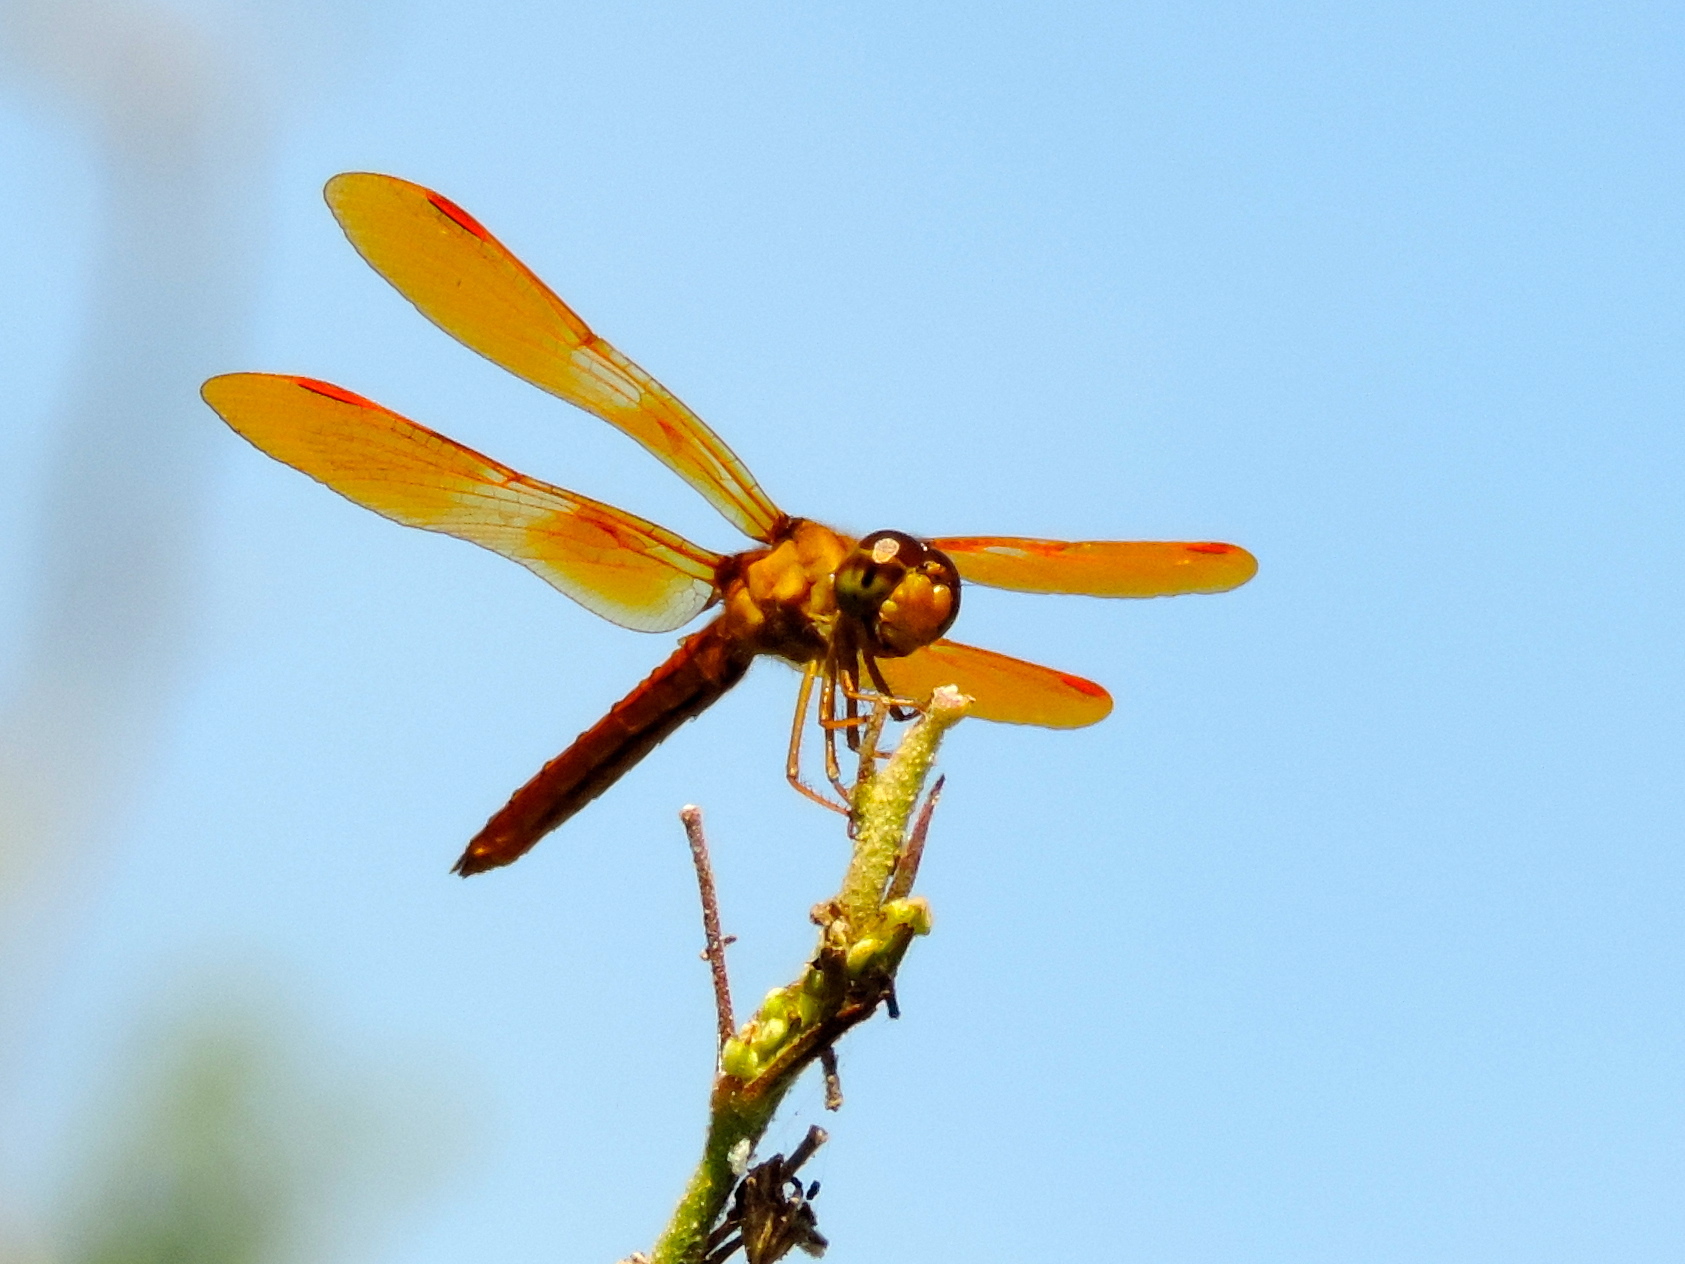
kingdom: Animalia
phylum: Arthropoda
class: Insecta
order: Odonata
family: Libellulidae
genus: Perithemis
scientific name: Perithemis intensa
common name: Mexican amberwing
